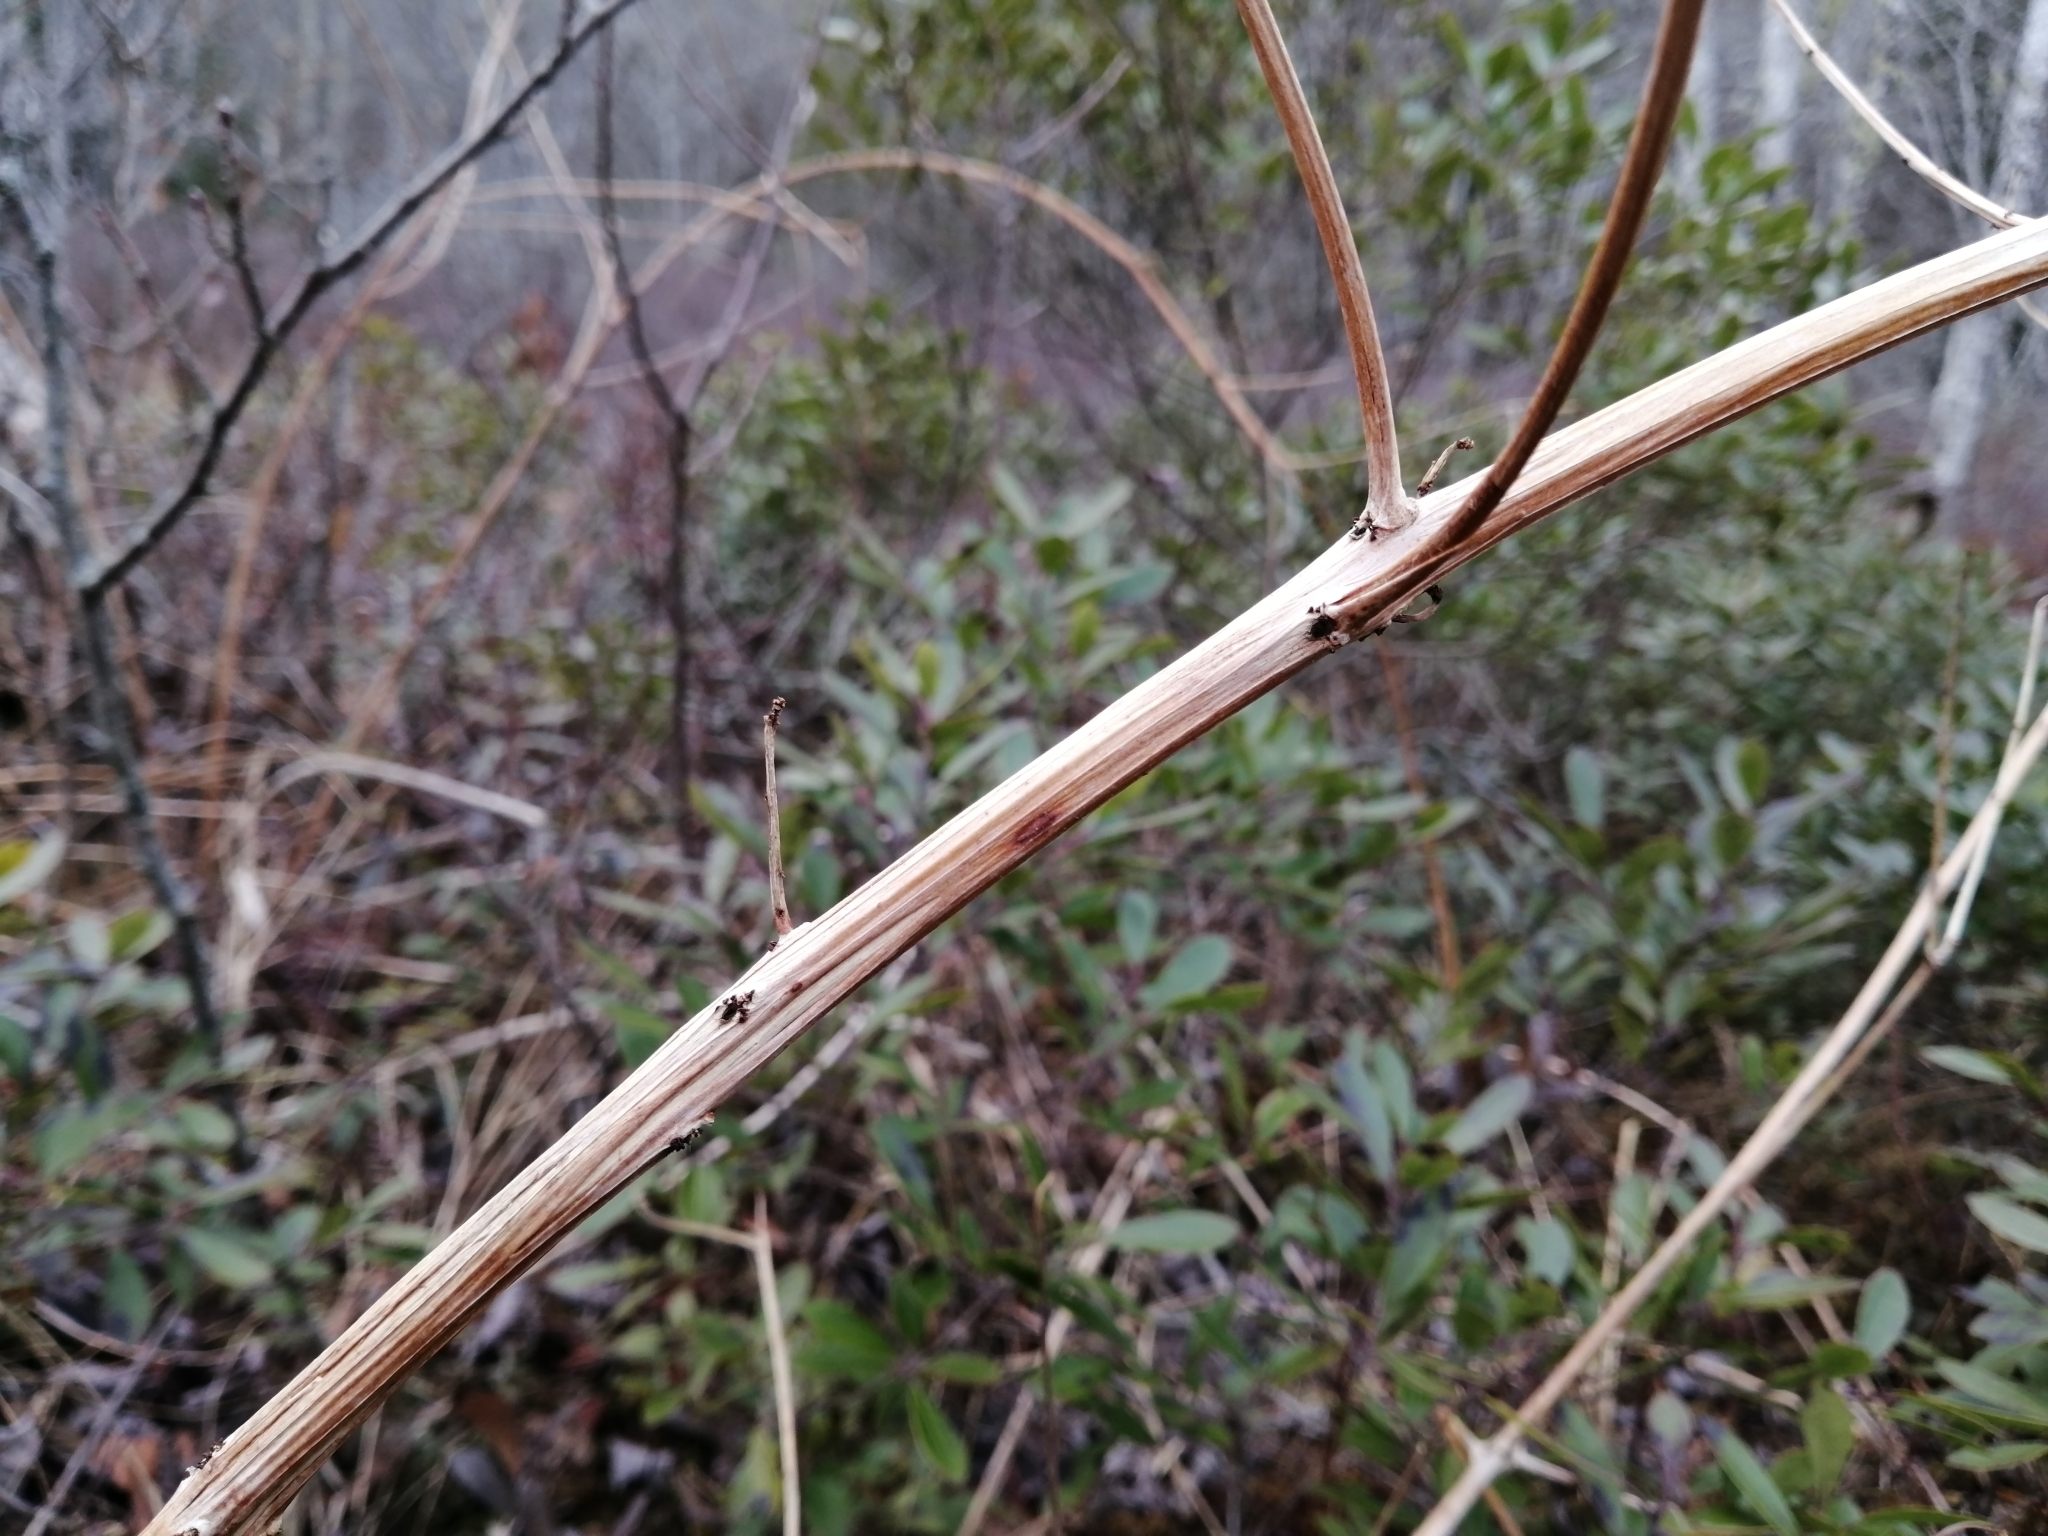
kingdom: Plantae
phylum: Tracheophyta
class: Magnoliopsida
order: Myrtales
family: Lythraceae
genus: Decodon
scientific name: Decodon verticillatus
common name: Hairy swamp loosestrife
